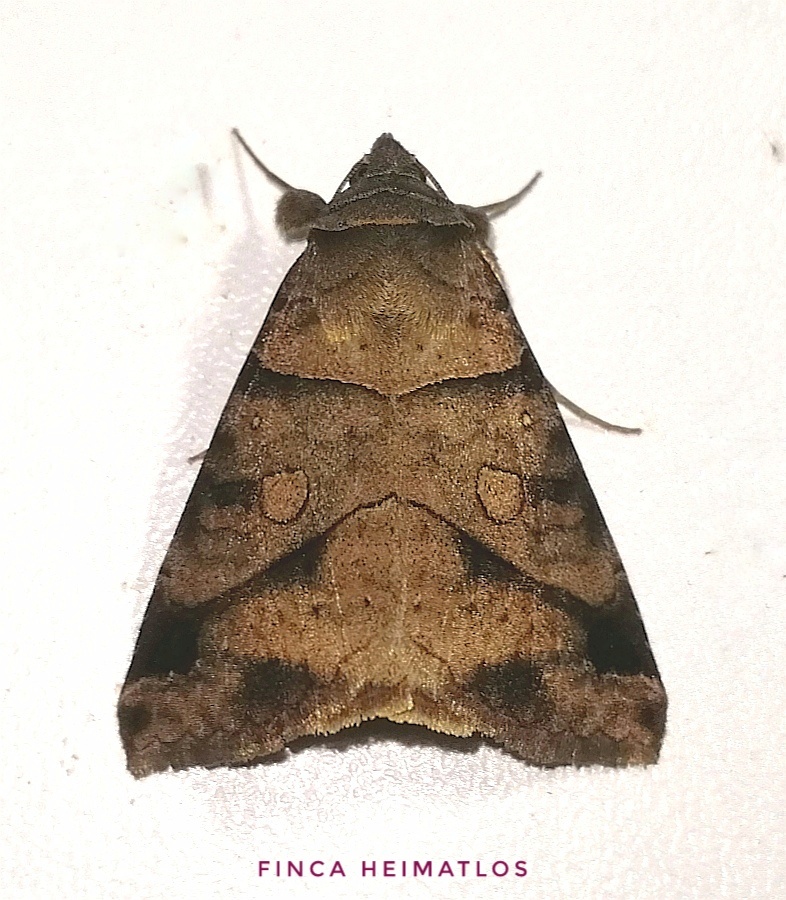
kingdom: Animalia
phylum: Arthropoda
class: Insecta
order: Lepidoptera
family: Erebidae
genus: Mocis
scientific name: Mocis diffluens
